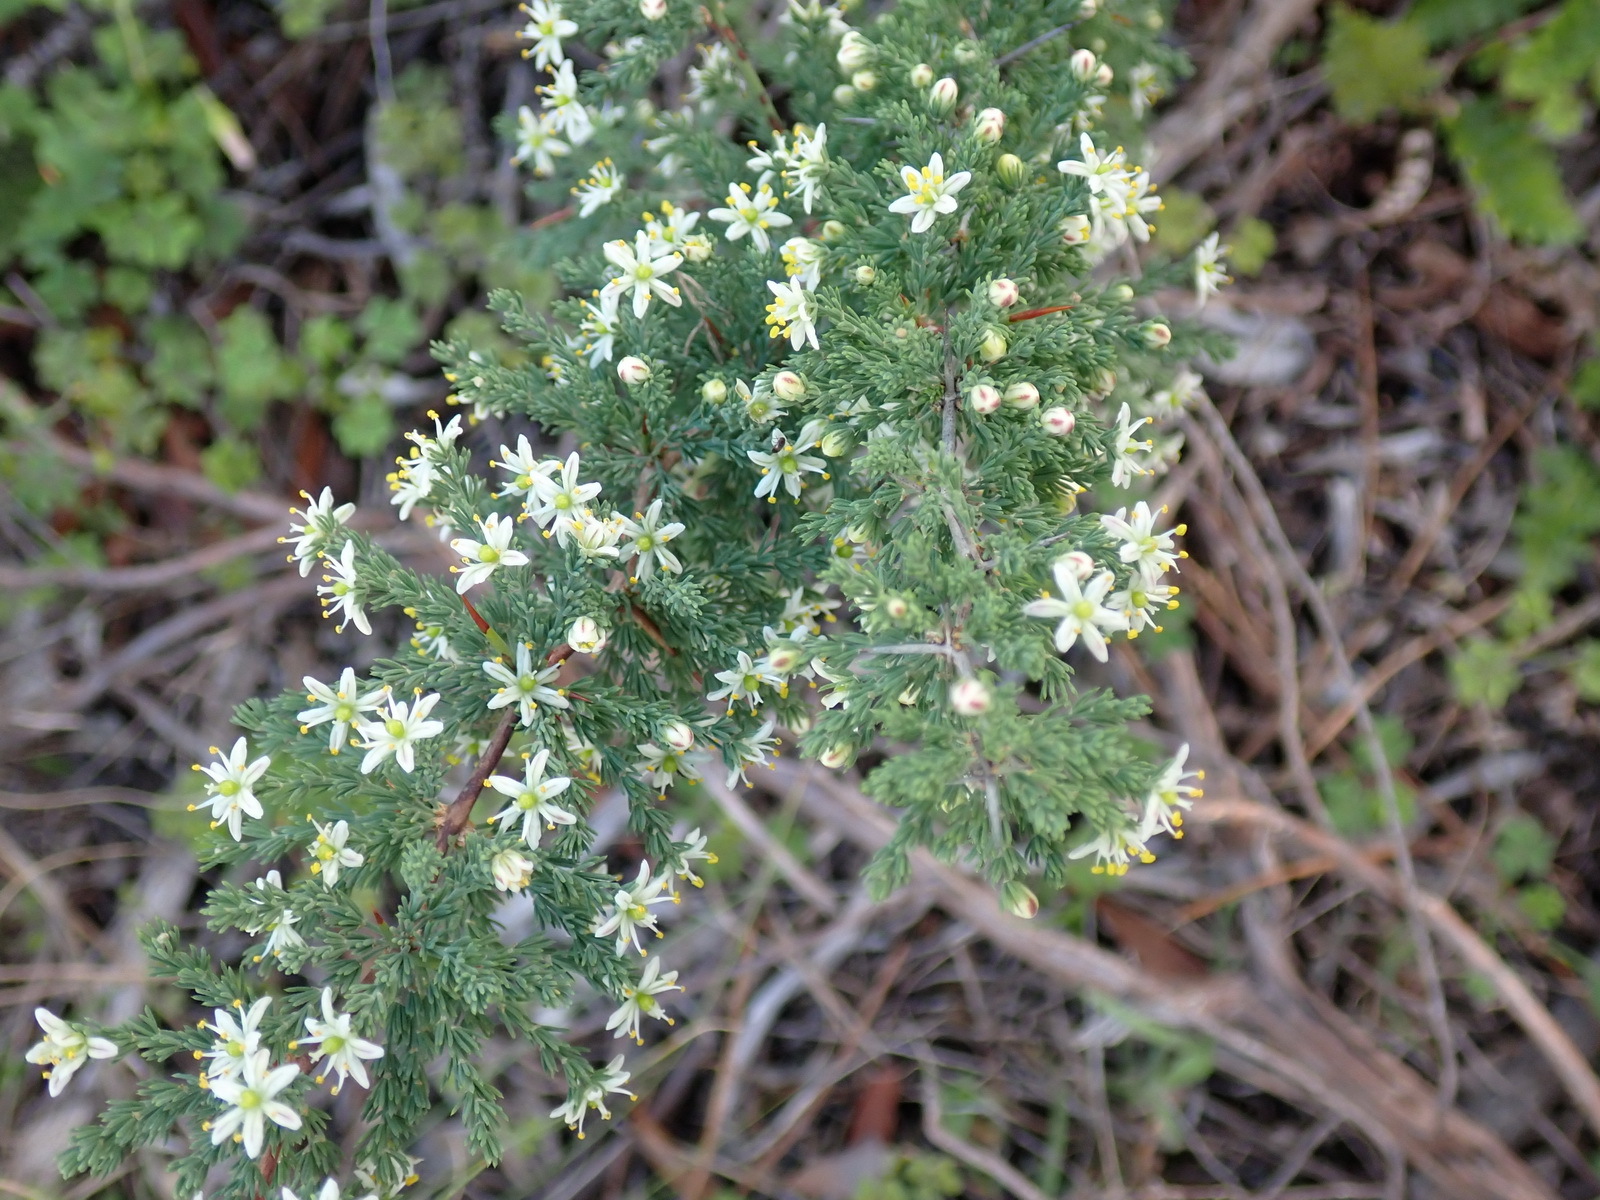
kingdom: Plantae
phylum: Tracheophyta
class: Liliopsida
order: Asparagales
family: Asparagaceae
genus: Asparagus
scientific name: Asparagus capensis
